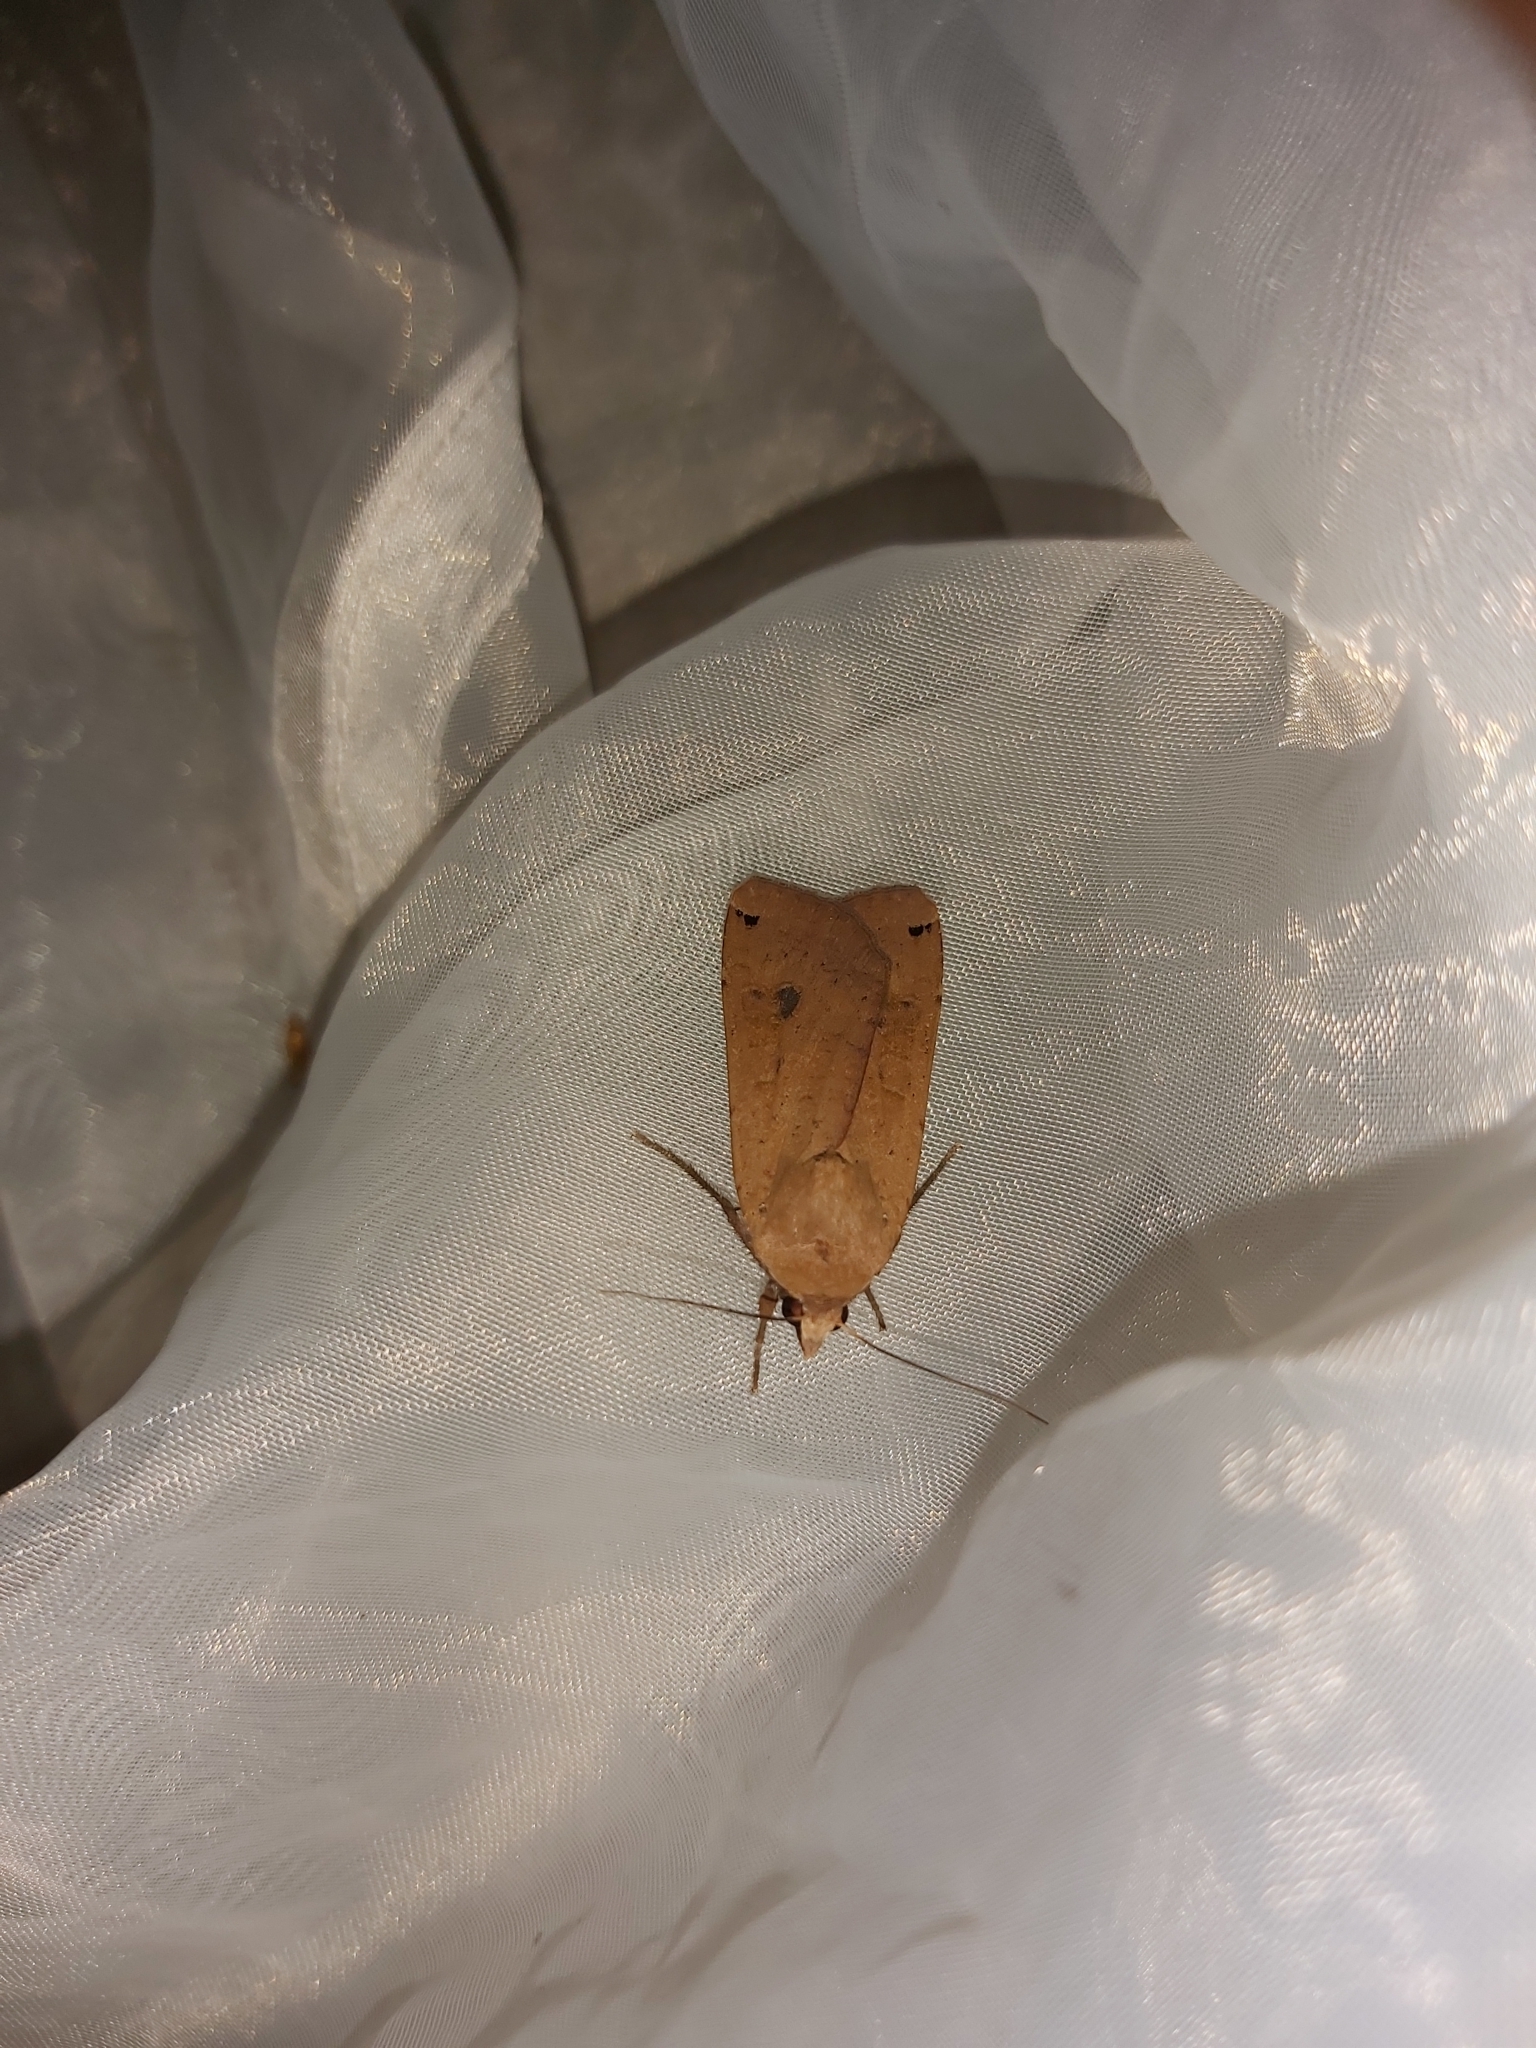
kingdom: Animalia
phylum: Arthropoda
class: Insecta
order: Lepidoptera
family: Noctuidae
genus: Noctua
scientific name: Noctua pronuba
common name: Large yellow underwing
